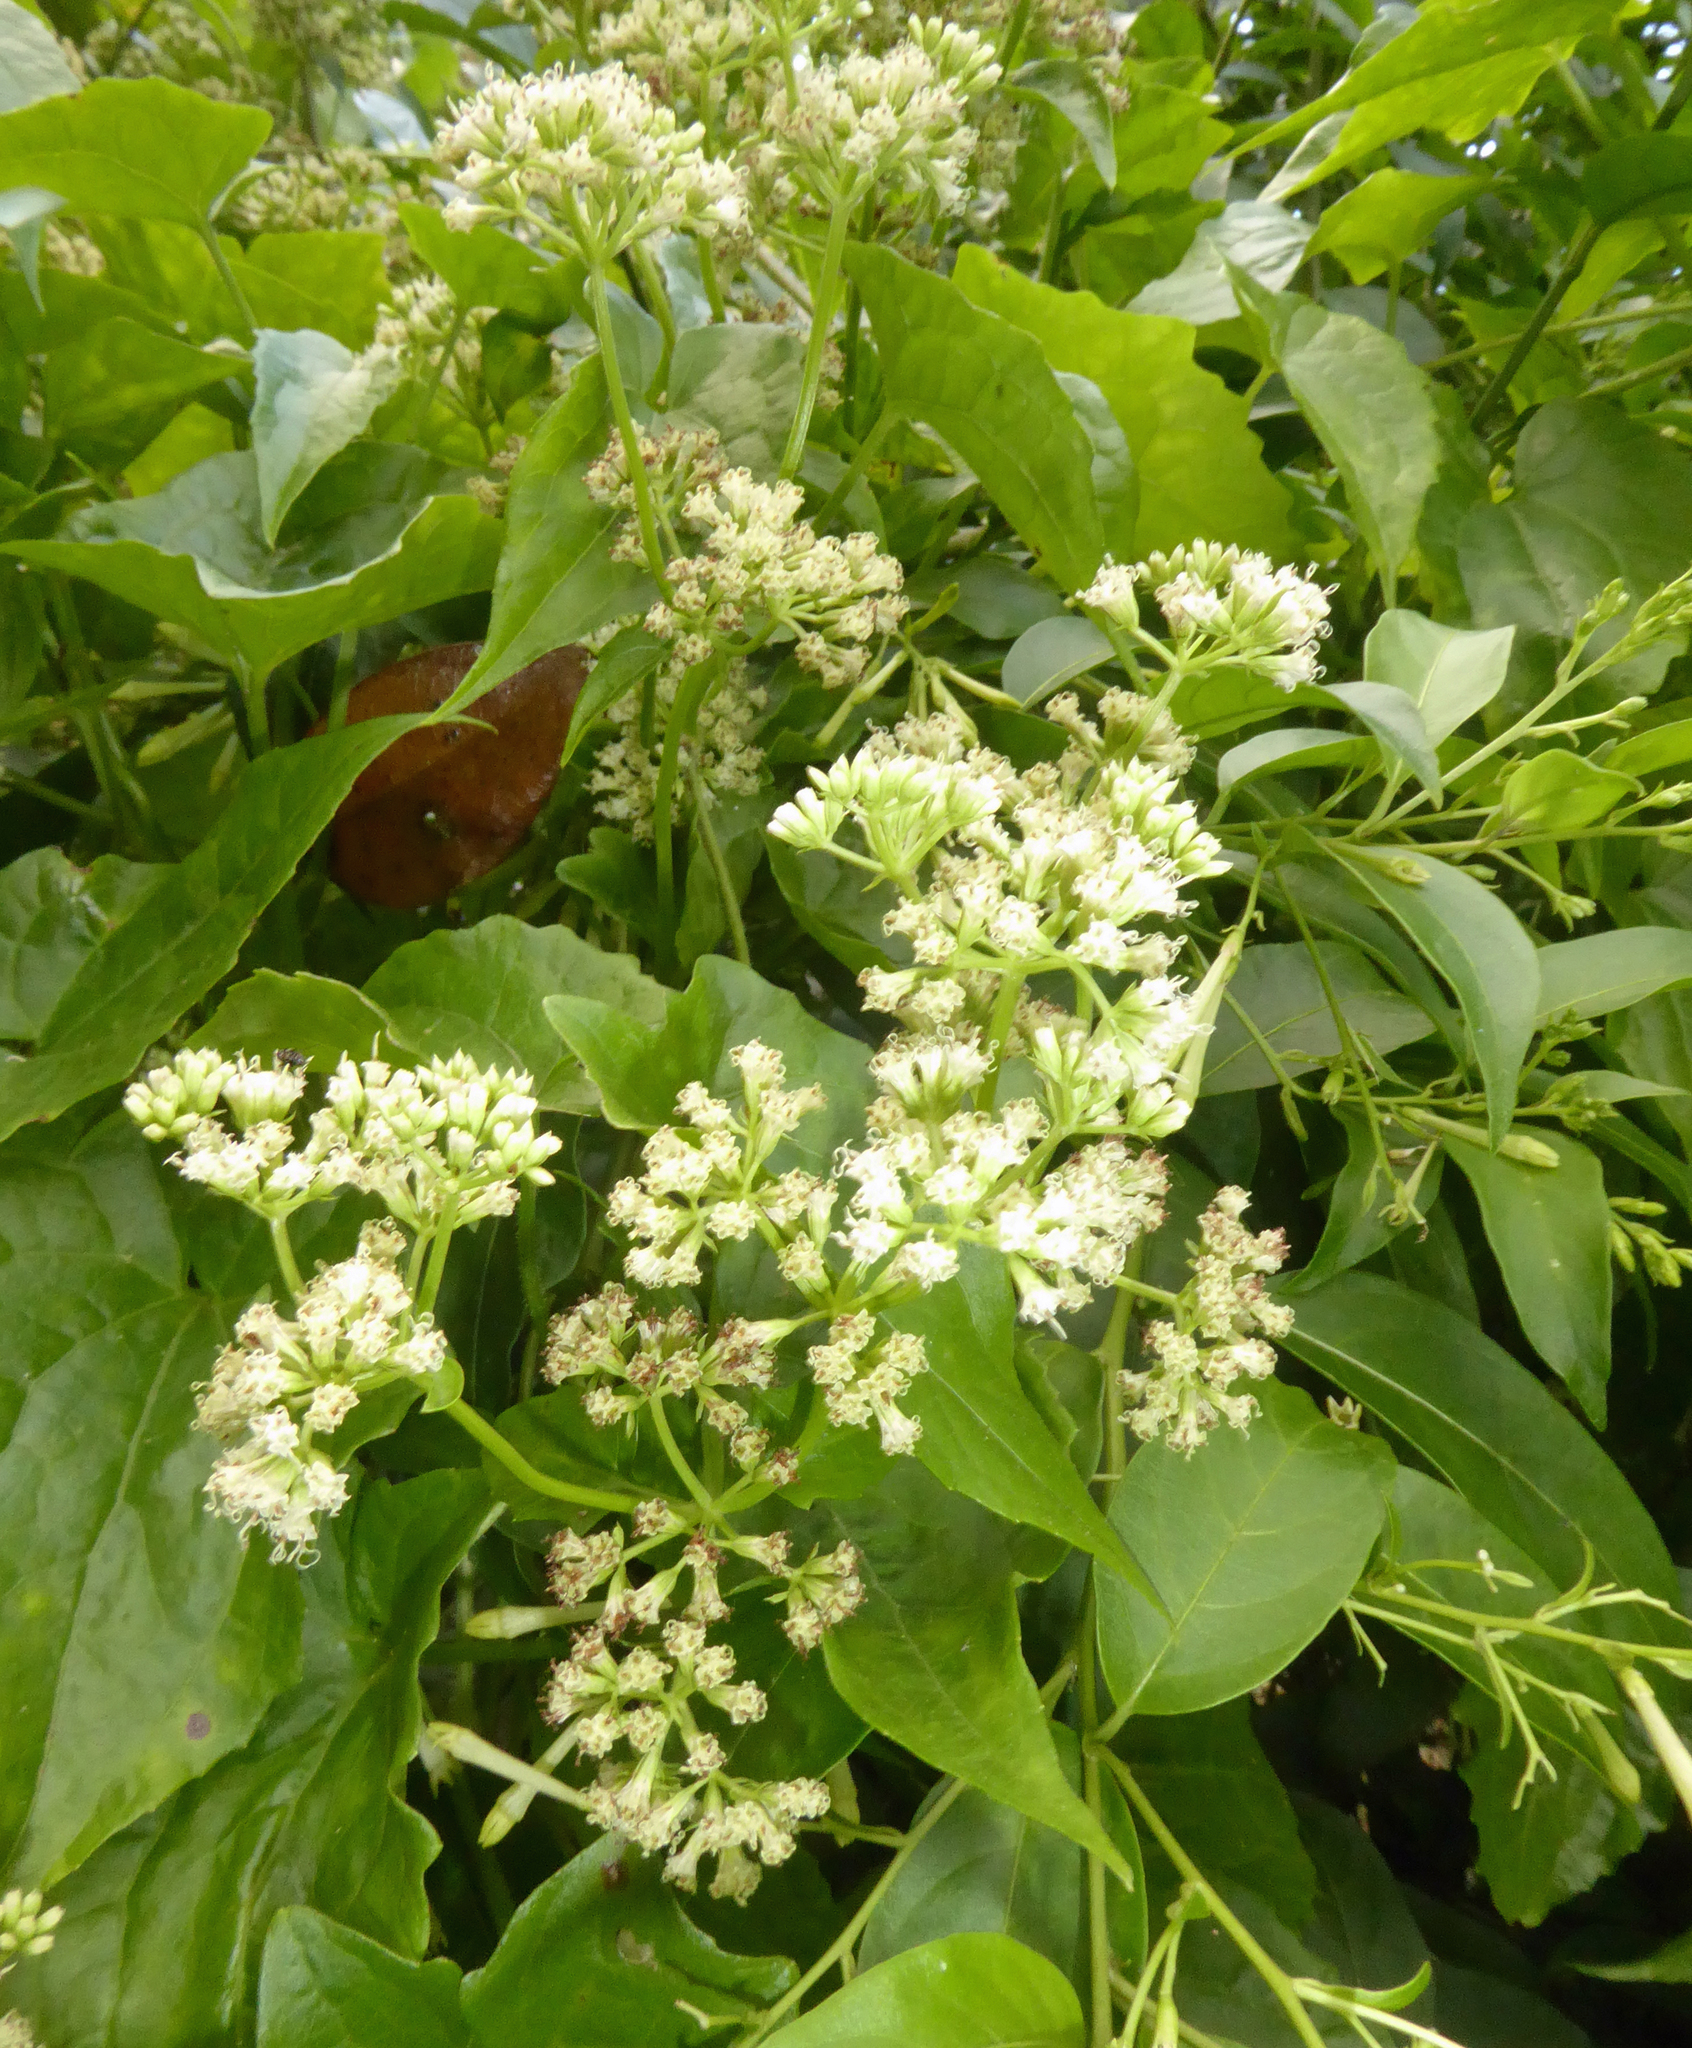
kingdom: Plantae
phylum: Tracheophyta
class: Magnoliopsida
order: Asterales
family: Asteraceae
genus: Mikania
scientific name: Mikania micrantha
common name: Mile-a-minute
